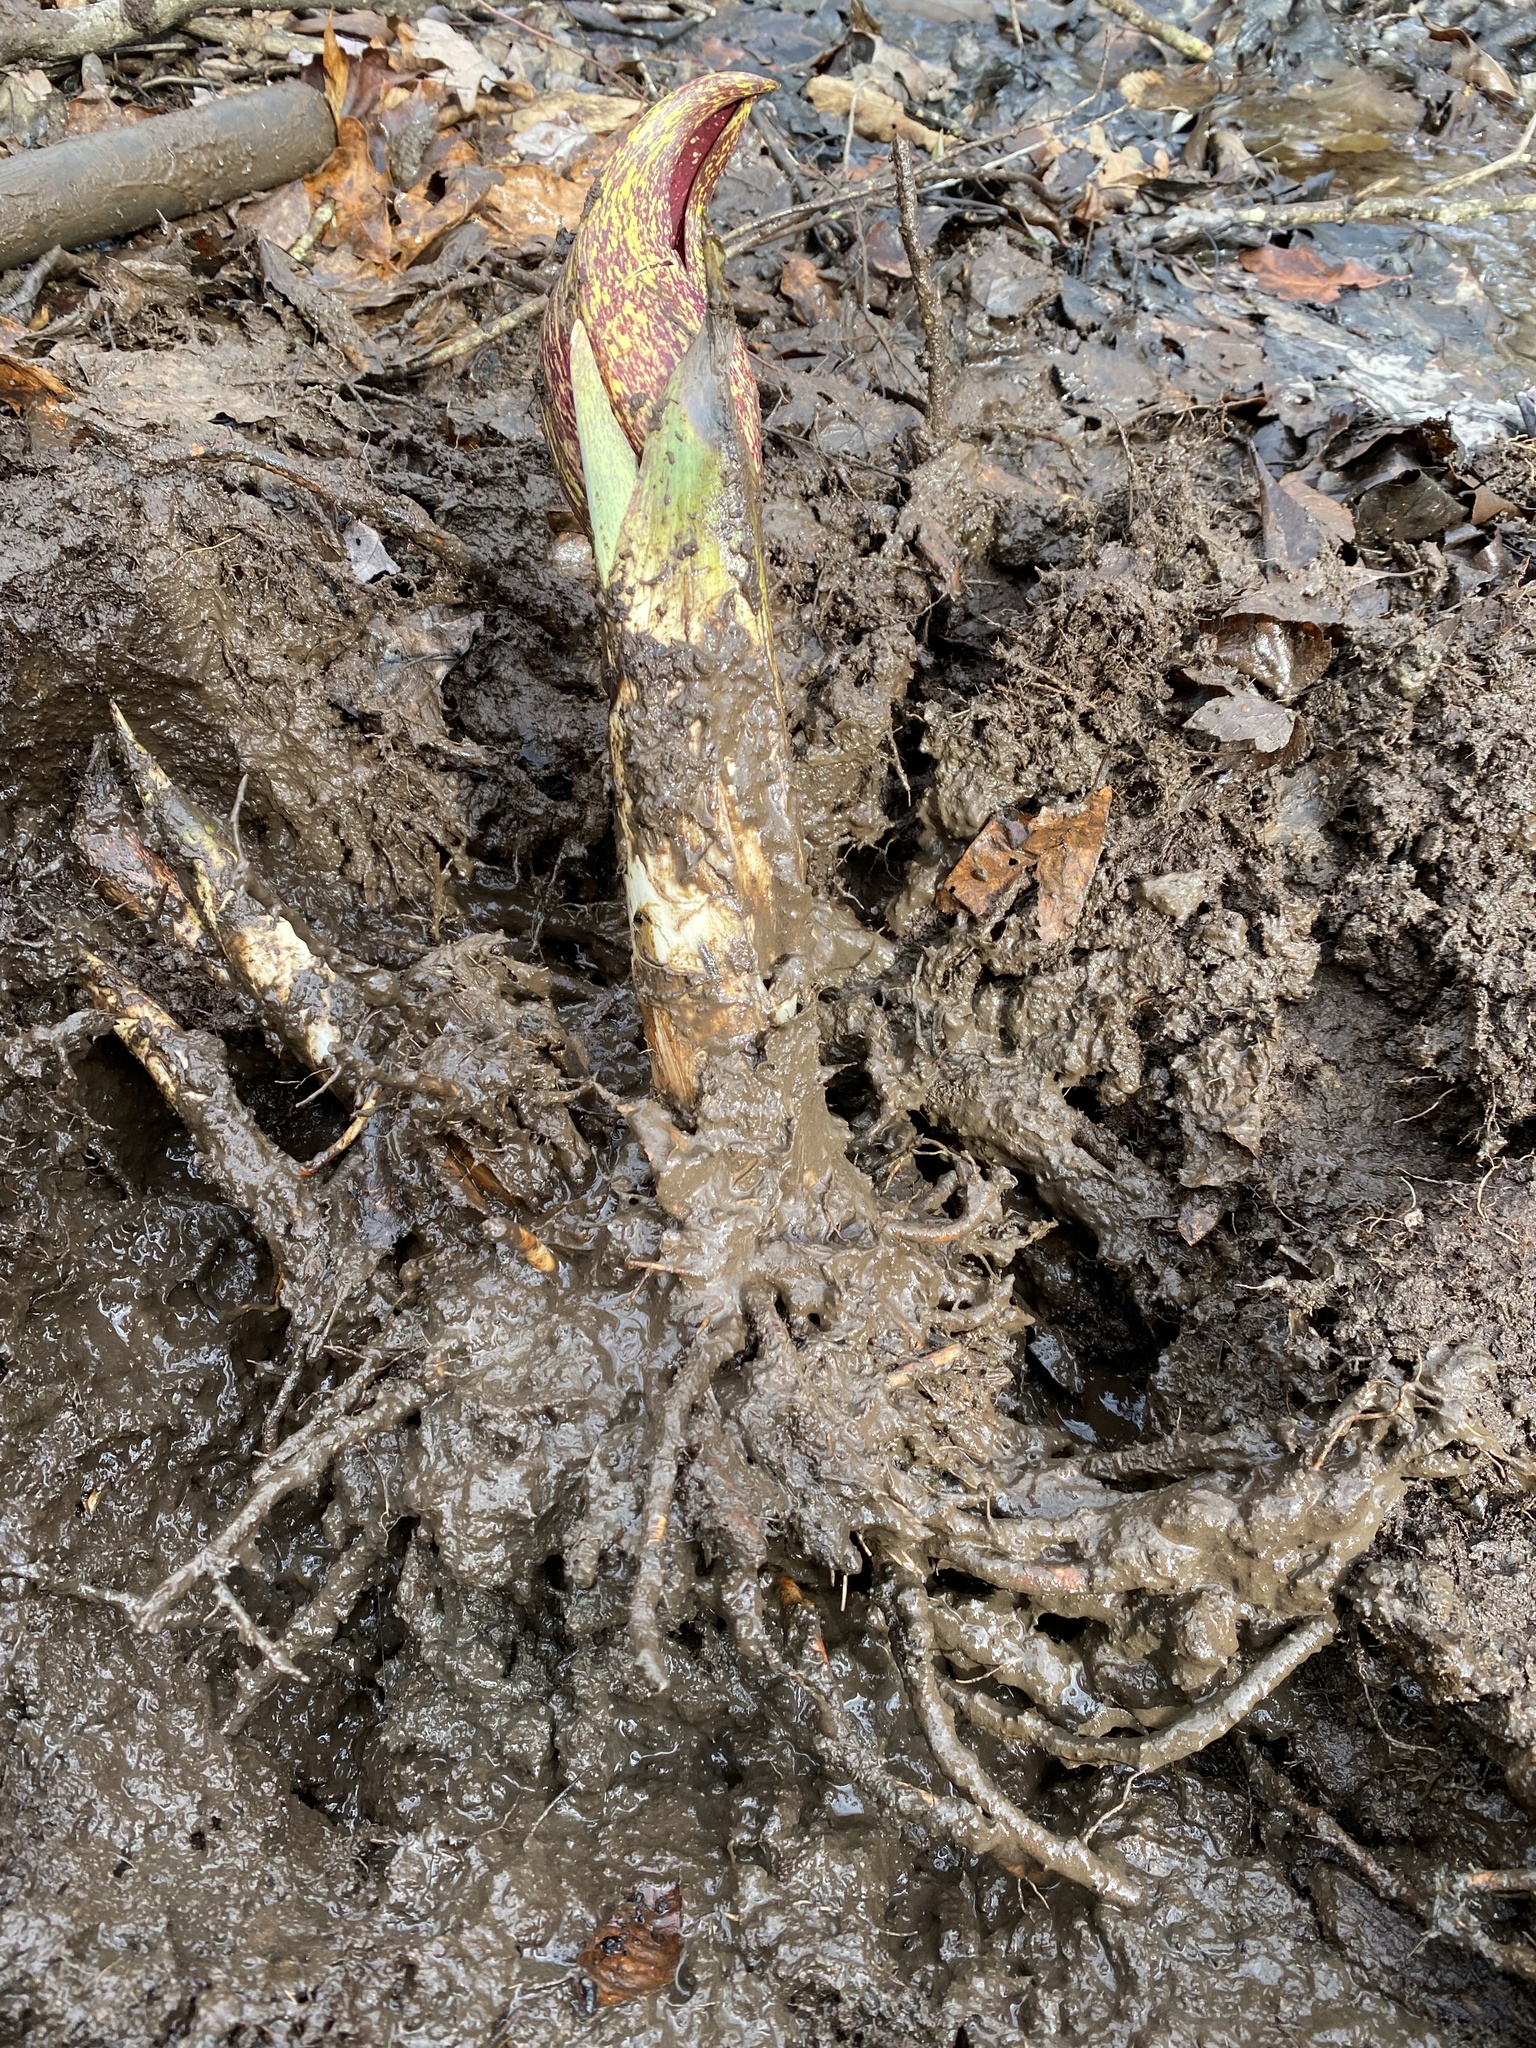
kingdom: Plantae
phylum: Tracheophyta
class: Liliopsida
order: Alismatales
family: Araceae
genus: Symplocarpus
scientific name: Symplocarpus foetidus
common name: Eastern skunk cabbage
